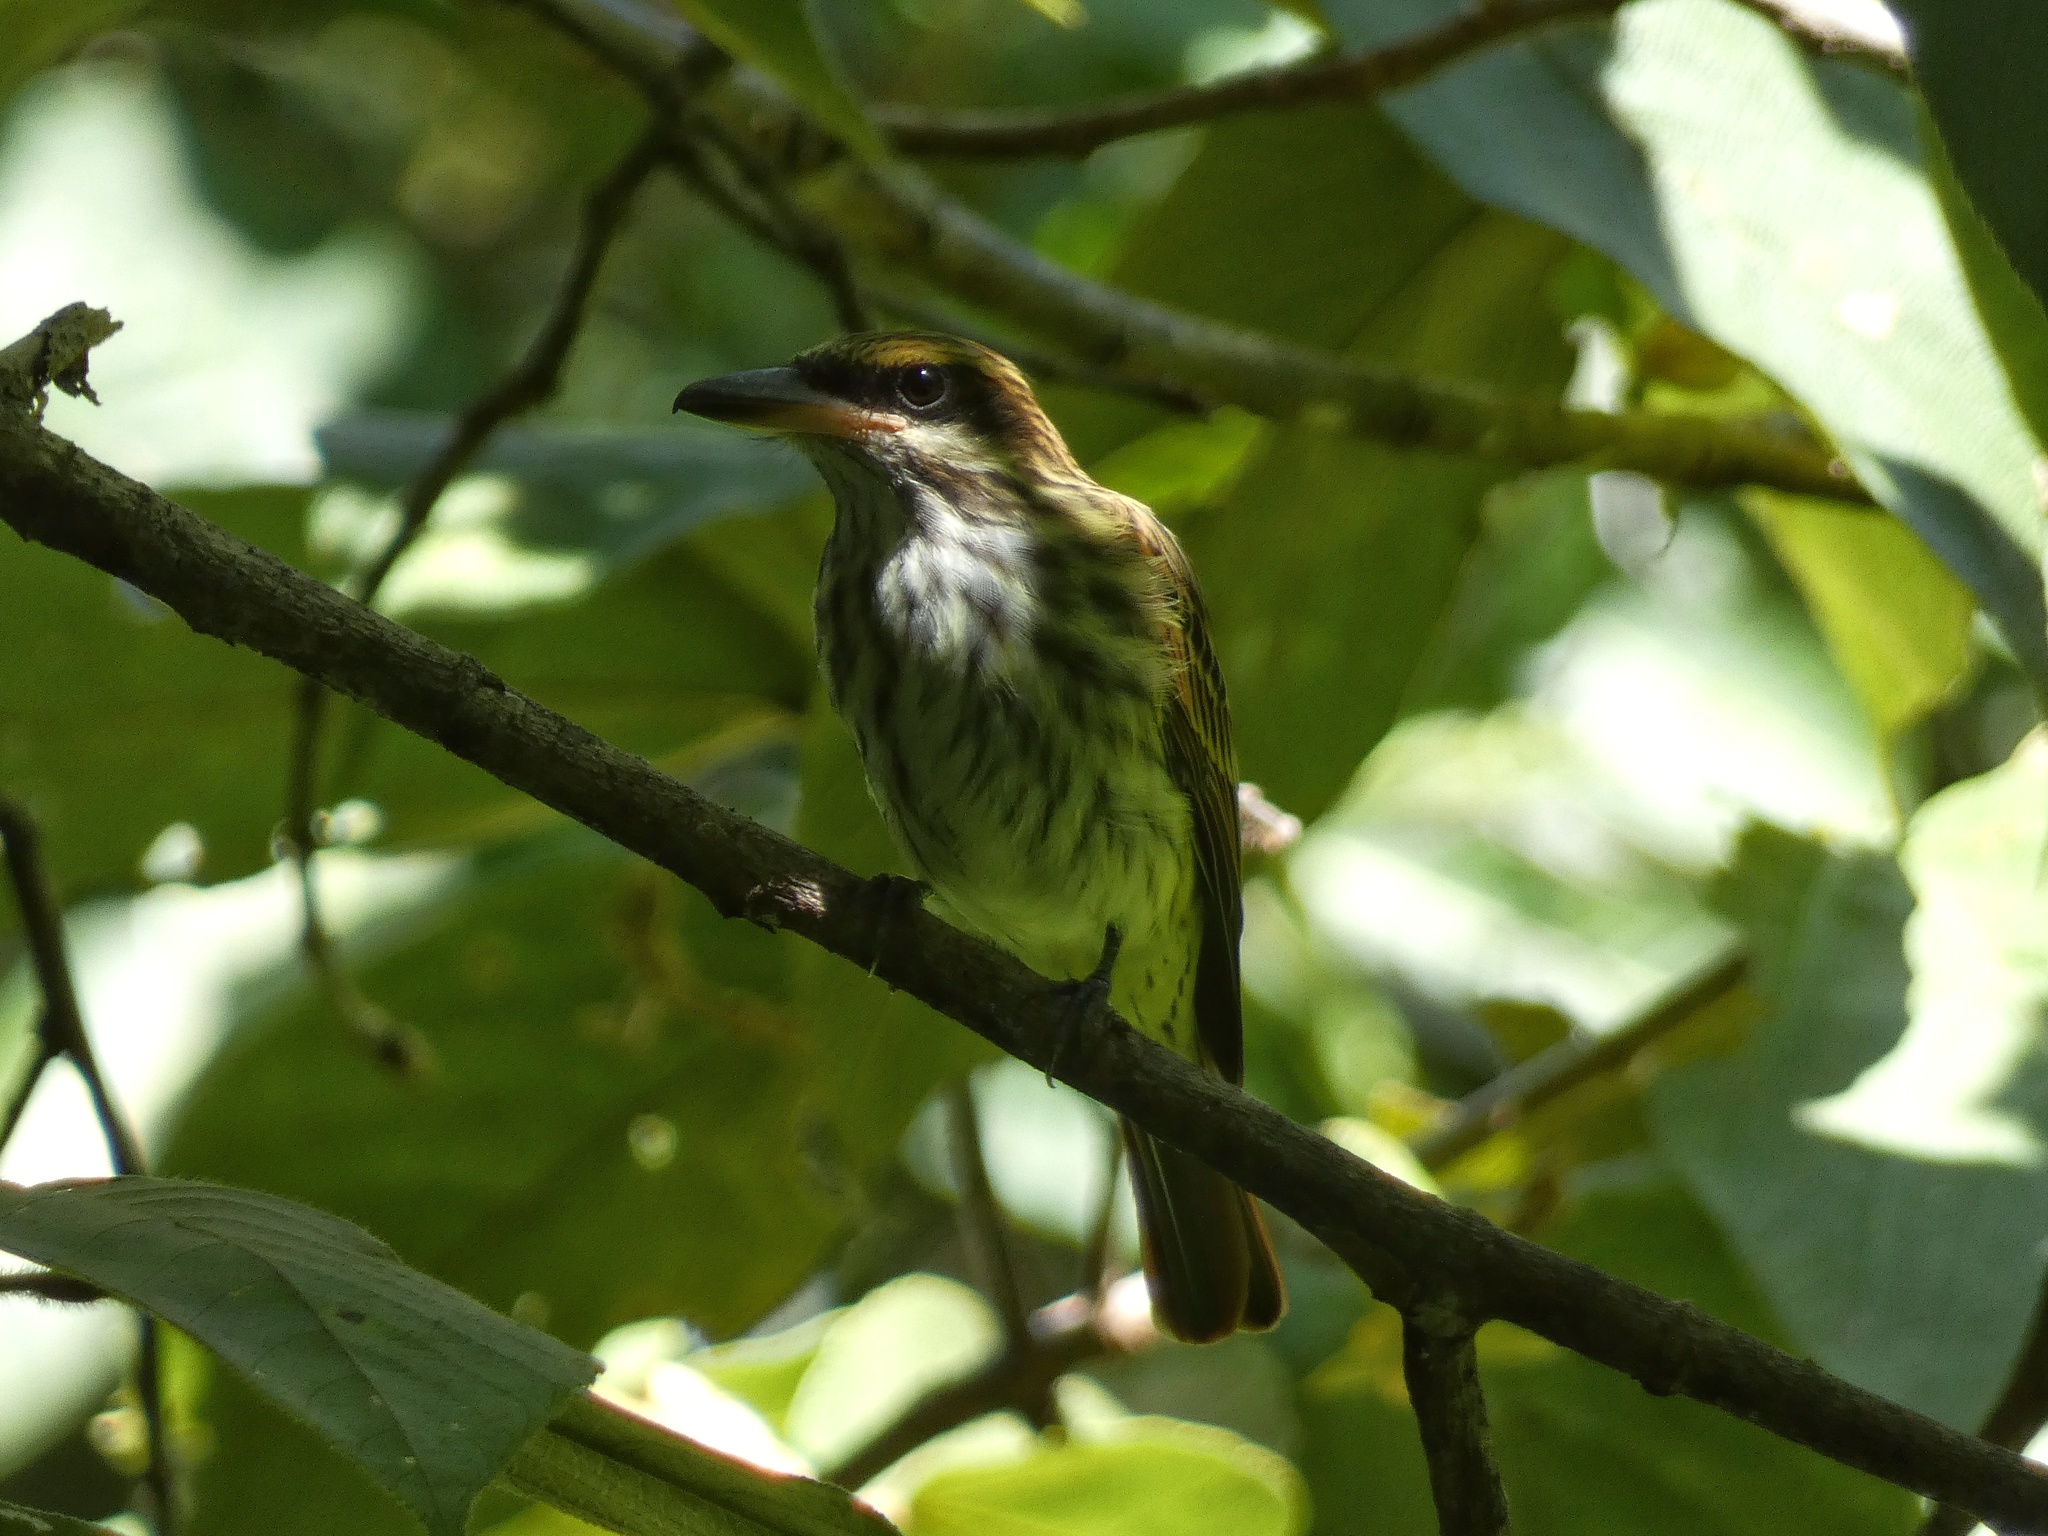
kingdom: Animalia
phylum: Chordata
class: Aves
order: Passeriformes
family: Tyrannidae
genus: Myiodynastes
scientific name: Myiodynastes maculatus
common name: Streaked flycatcher
